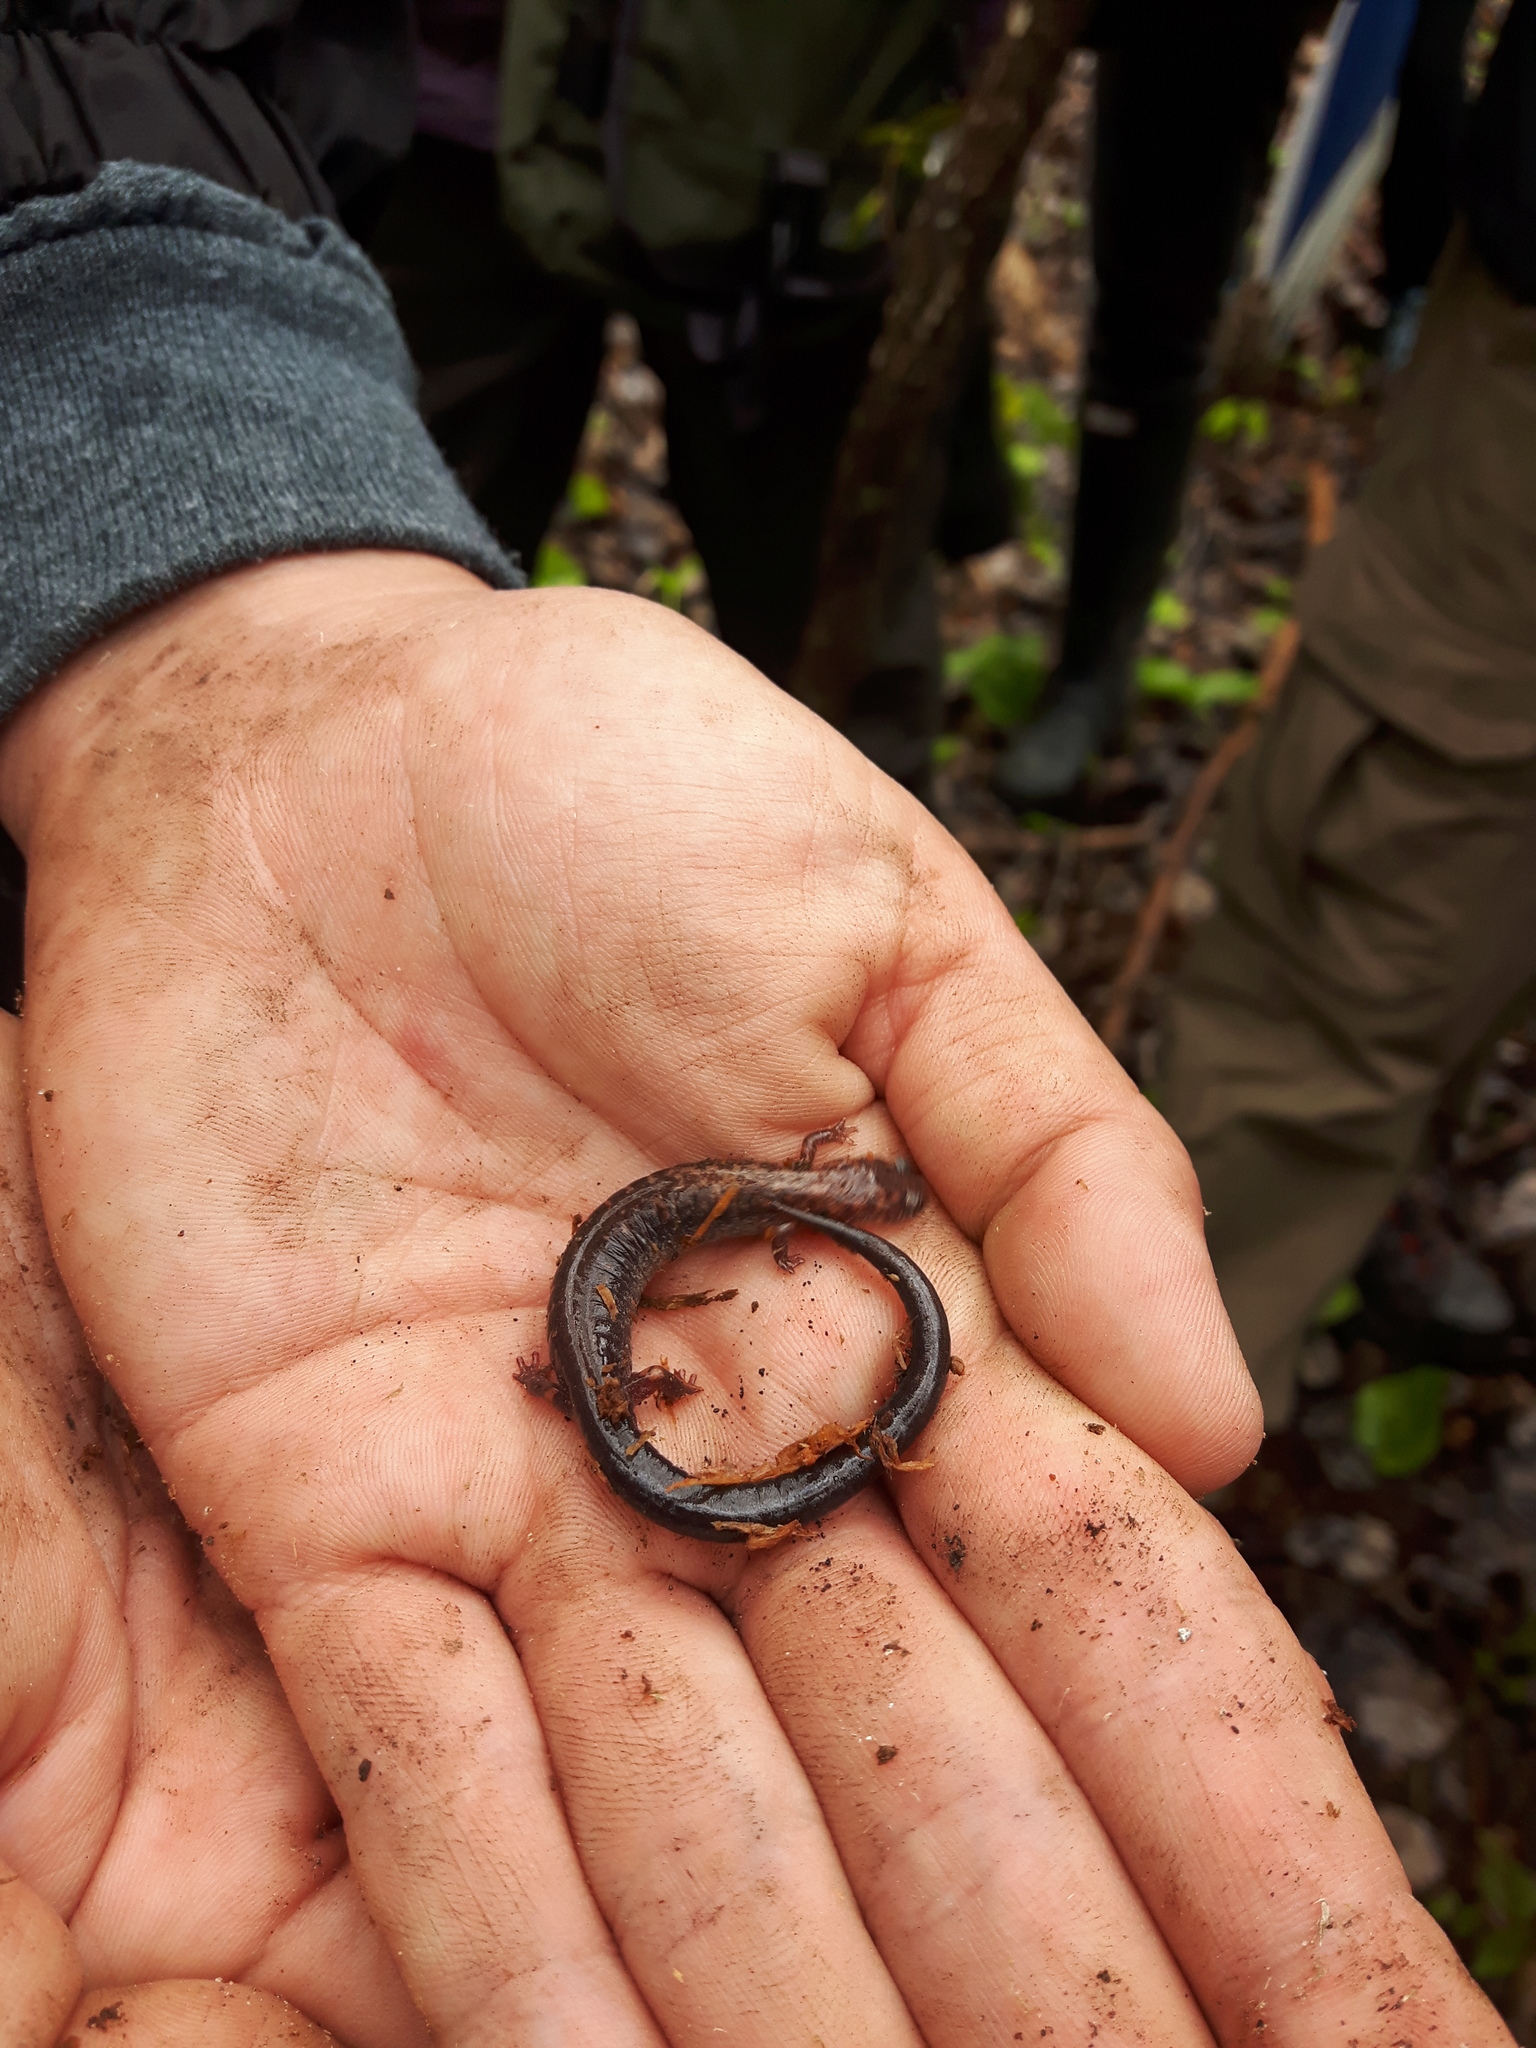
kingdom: Animalia
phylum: Chordata
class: Amphibia
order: Caudata
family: Plethodontidae
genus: Plethodon
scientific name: Plethodon cinereus
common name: Redback salamander
